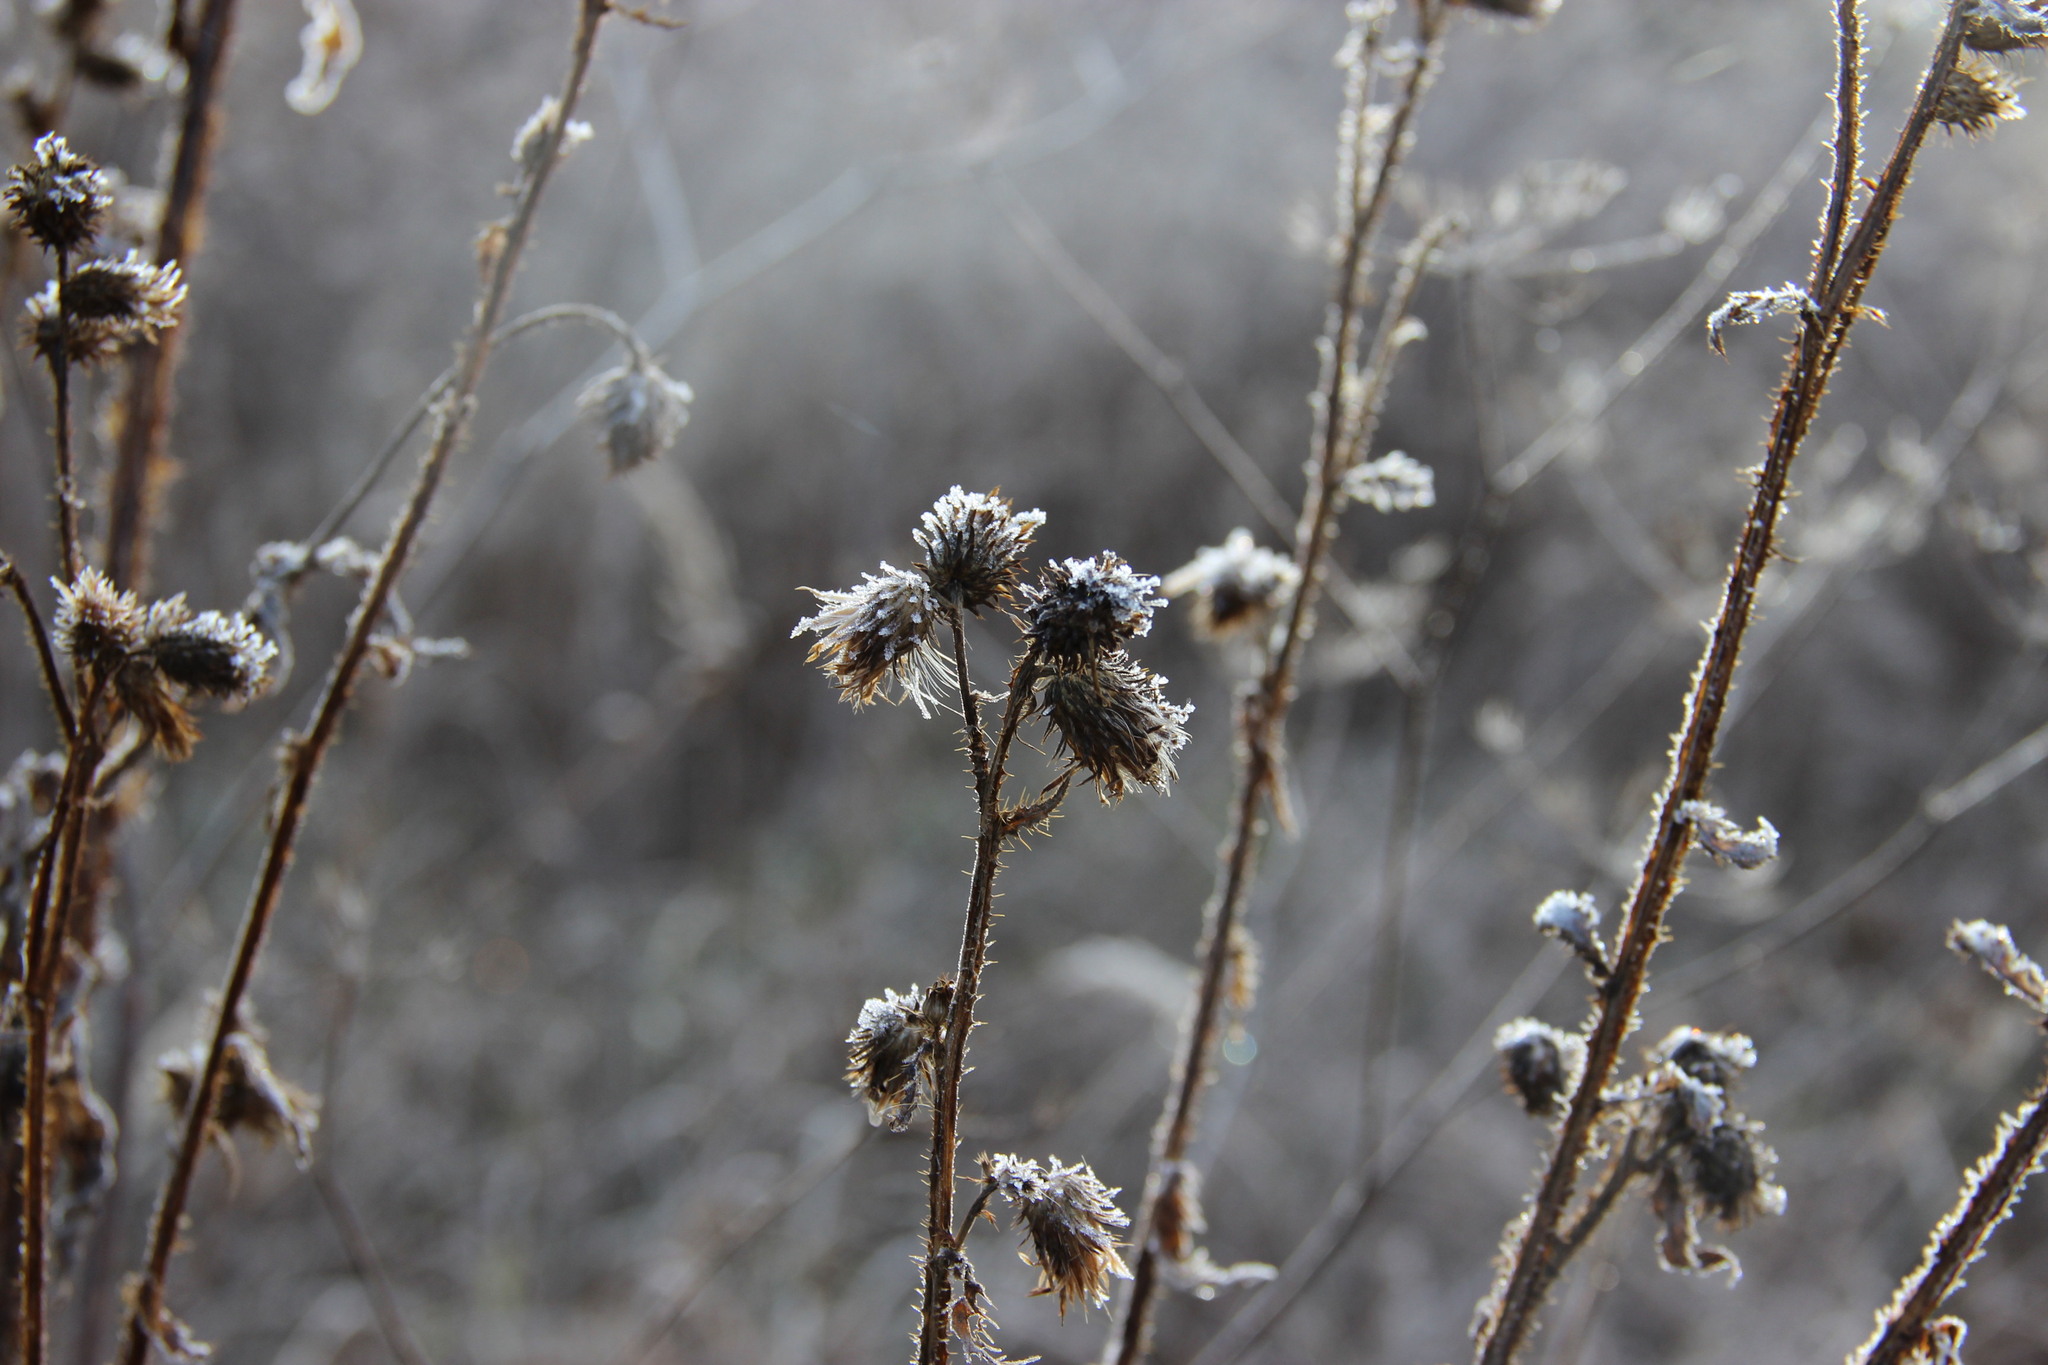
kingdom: Plantae
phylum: Tracheophyta
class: Magnoliopsida
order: Asterales
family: Asteraceae
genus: Carduus
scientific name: Carduus crispus
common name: Welted thistle
